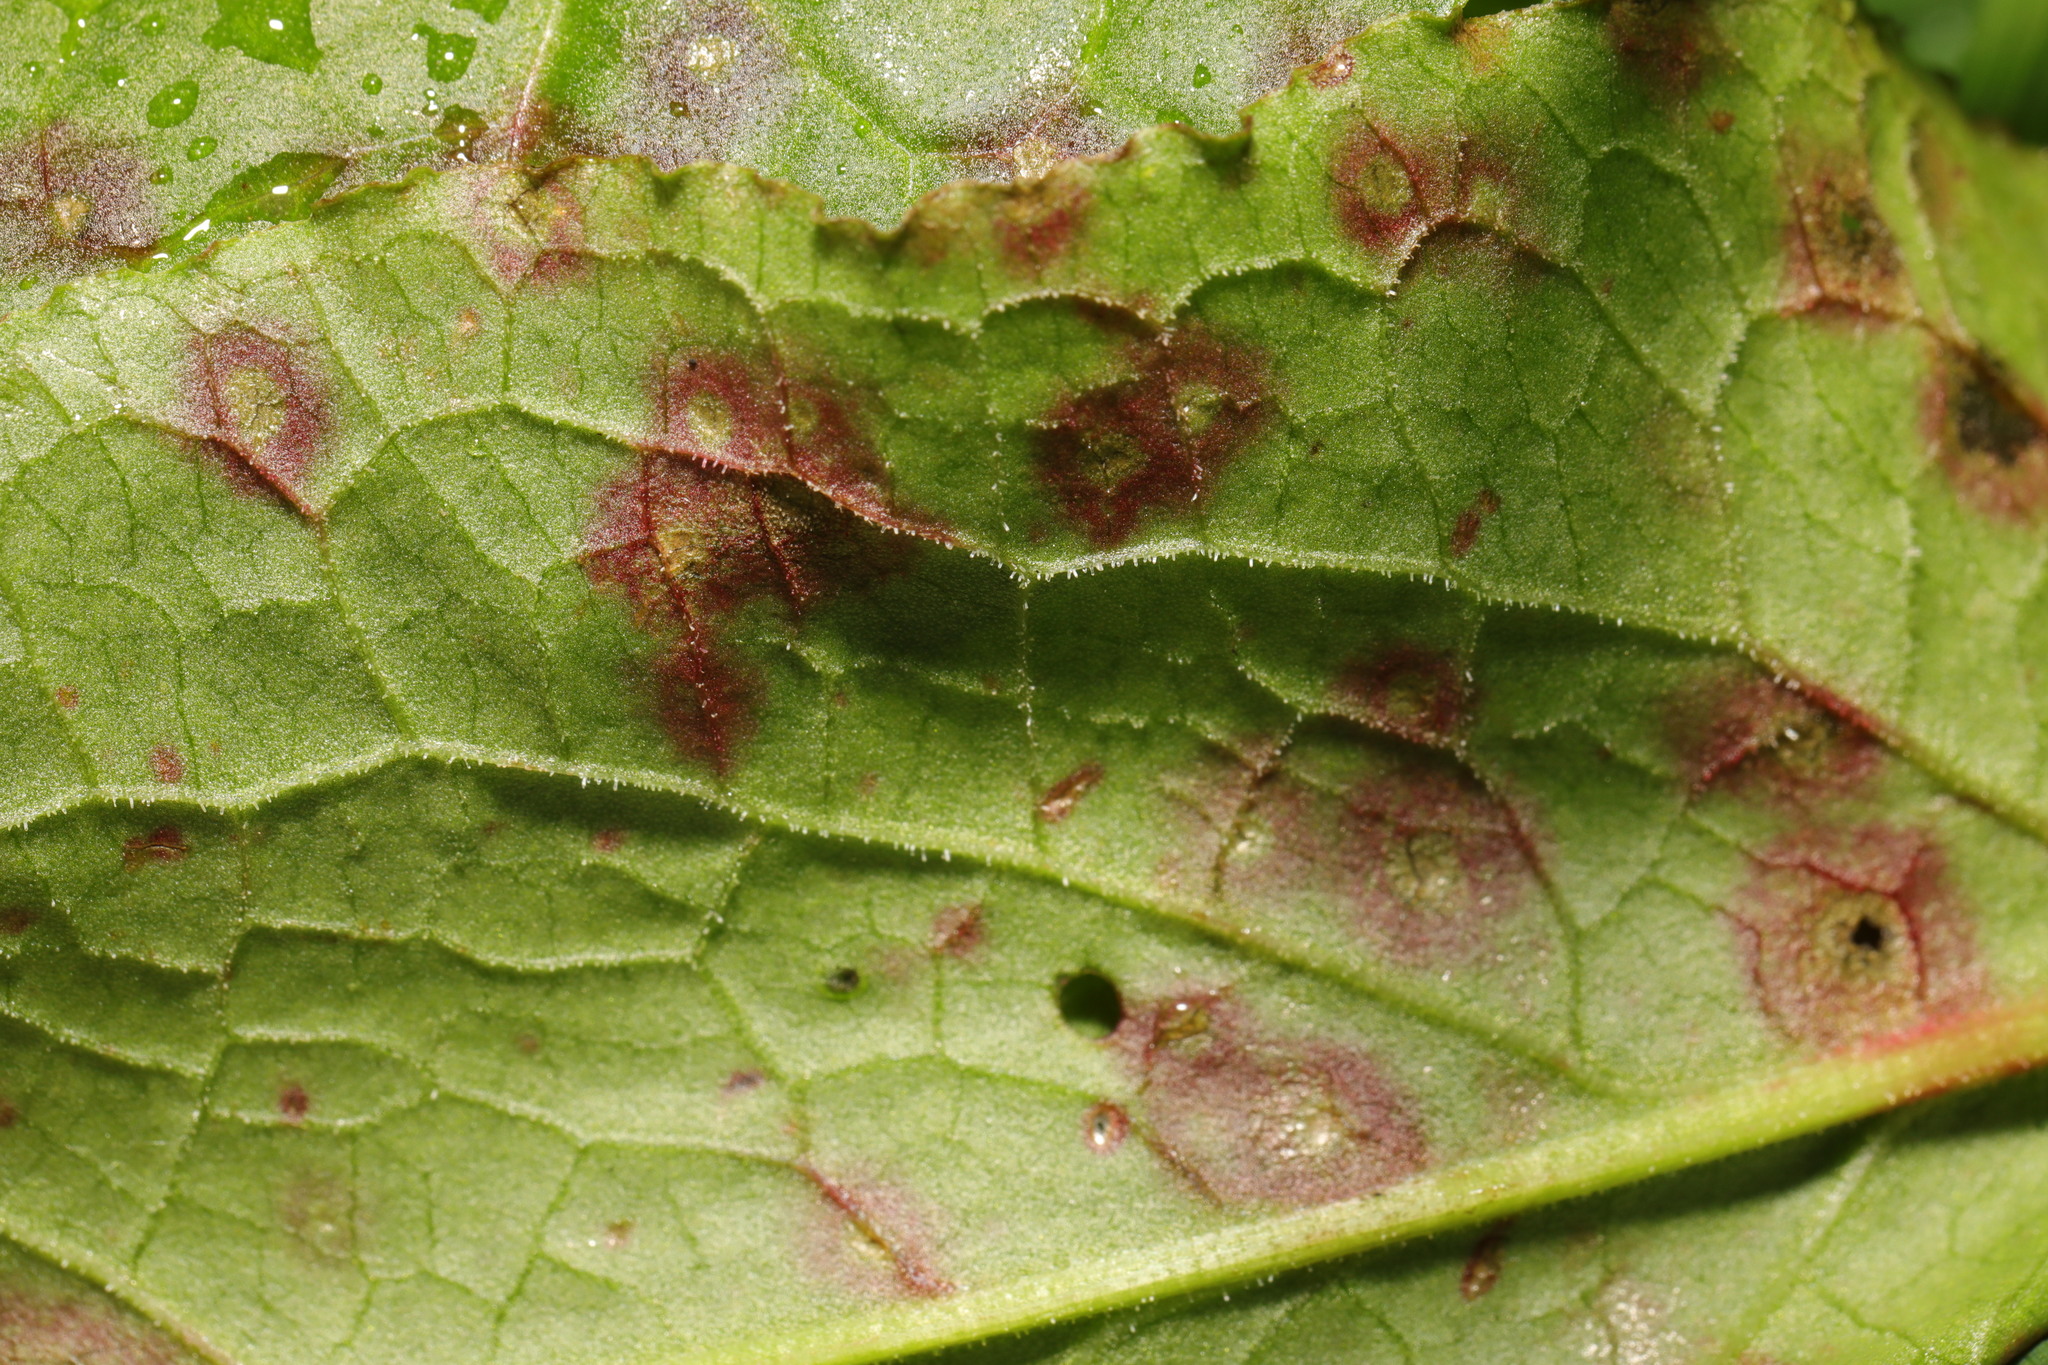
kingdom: Fungi
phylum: Ascomycota
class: Dothideomycetes
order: Mycosphaerellales
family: Mycosphaerellaceae
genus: Ramularia
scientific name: Ramularia rubella
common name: Red dock spot
